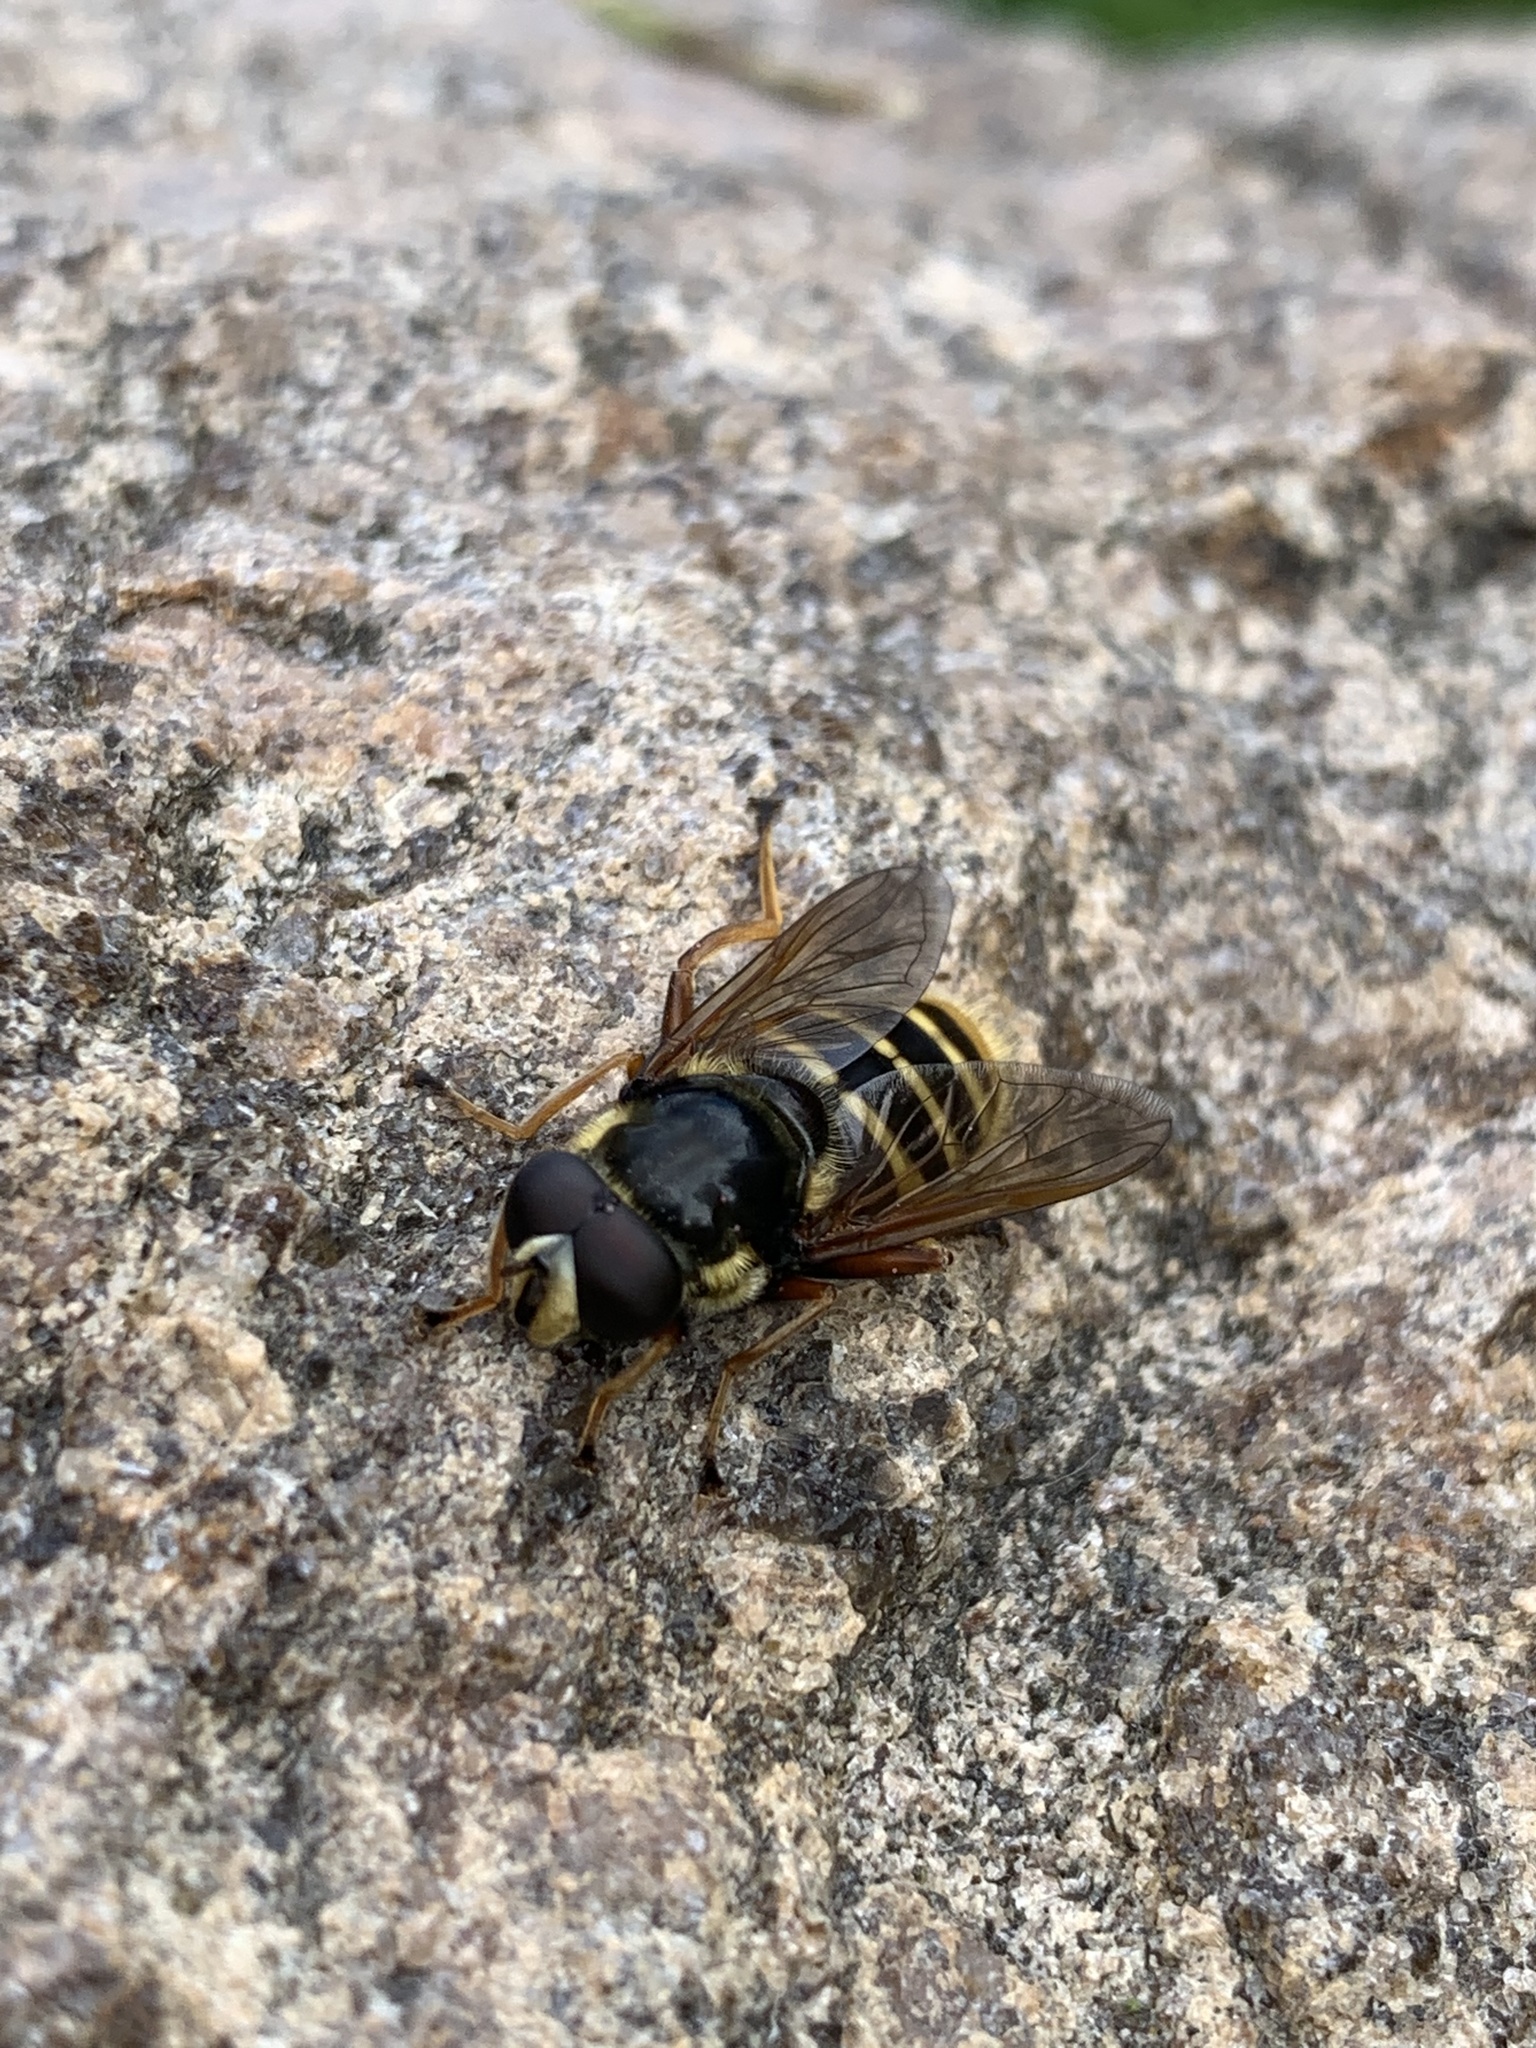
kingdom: Animalia
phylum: Arthropoda
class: Insecta
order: Diptera
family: Syrphidae
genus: Sericomyia
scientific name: Sericomyia silentis
